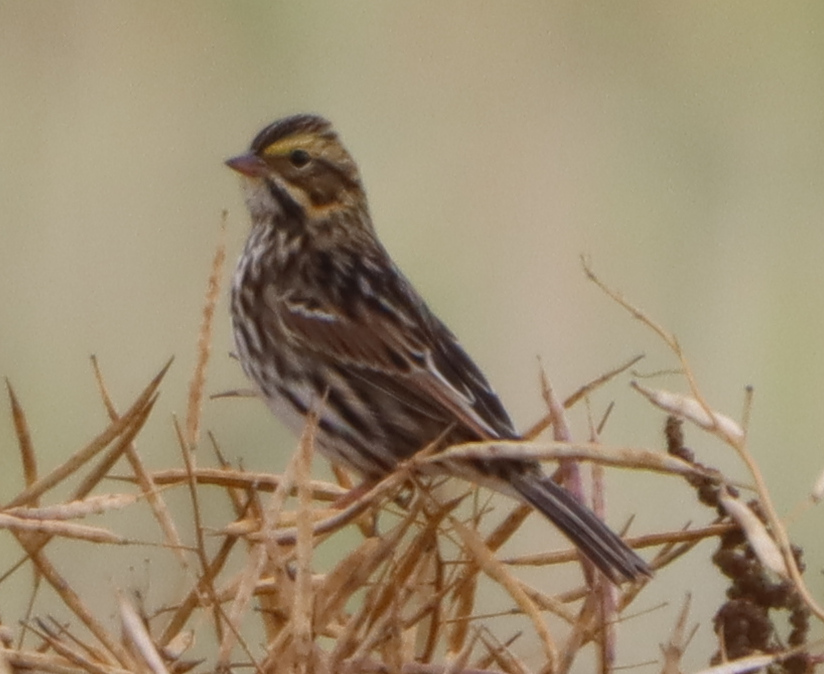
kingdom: Animalia
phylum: Chordata
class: Aves
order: Passeriformes
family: Passerellidae
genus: Passerculus
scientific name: Passerculus sandwichensis
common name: Savannah sparrow
